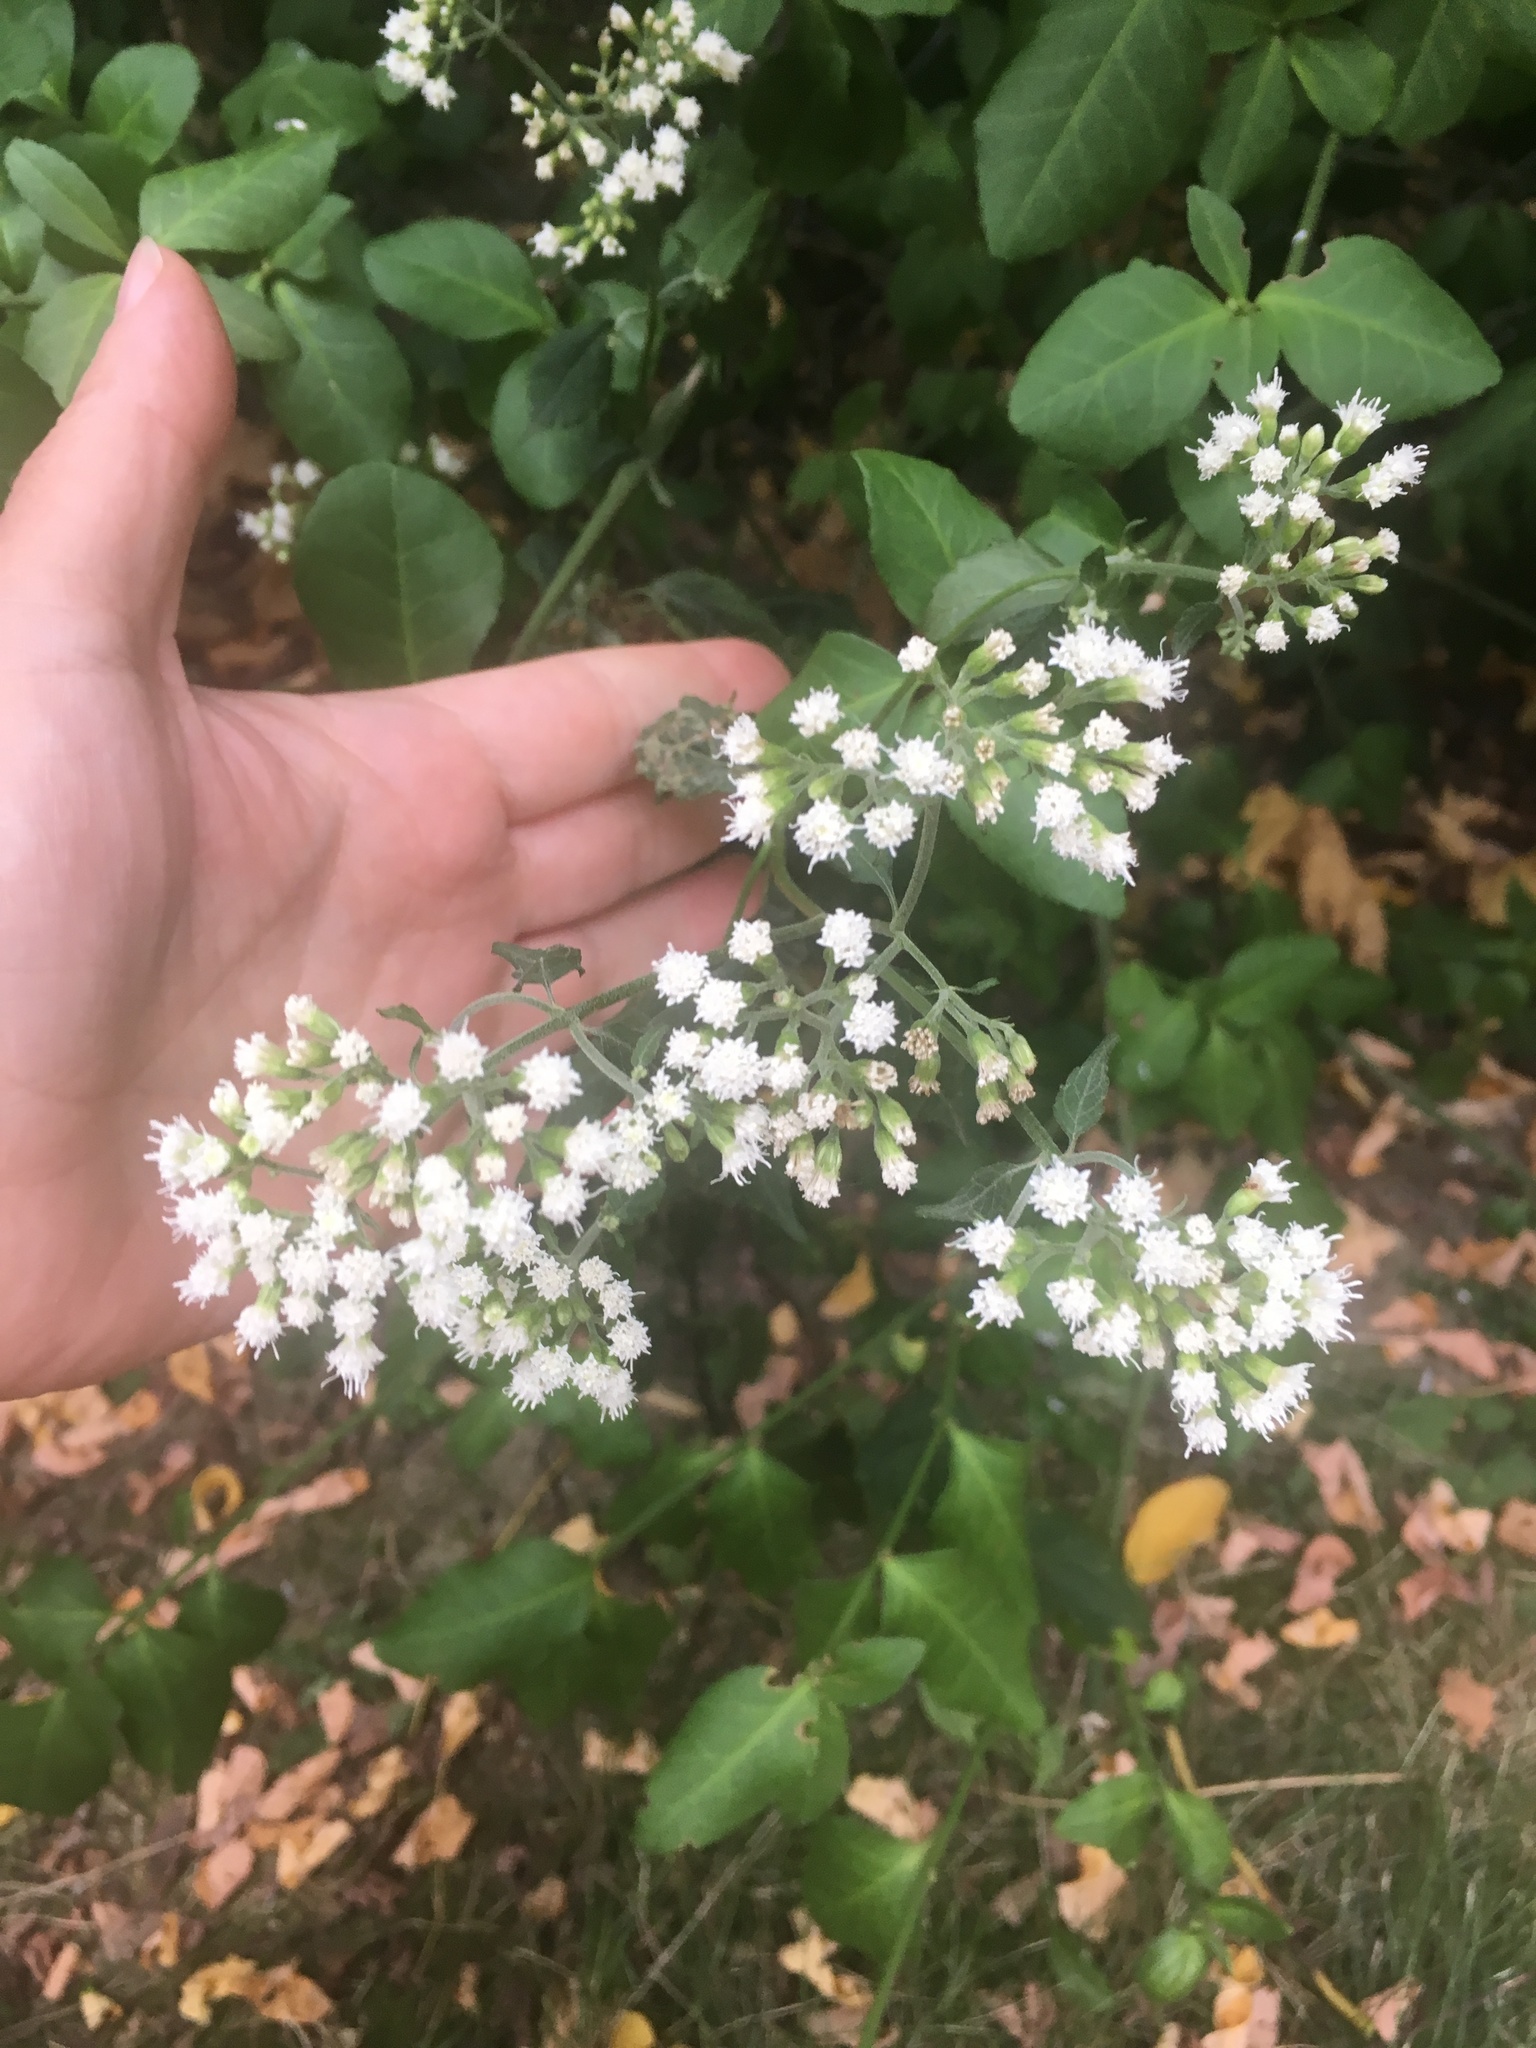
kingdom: Plantae
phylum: Tracheophyta
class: Magnoliopsida
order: Asterales
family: Asteraceae
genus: Ageratina
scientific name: Ageratina altissima
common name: White snakeroot
